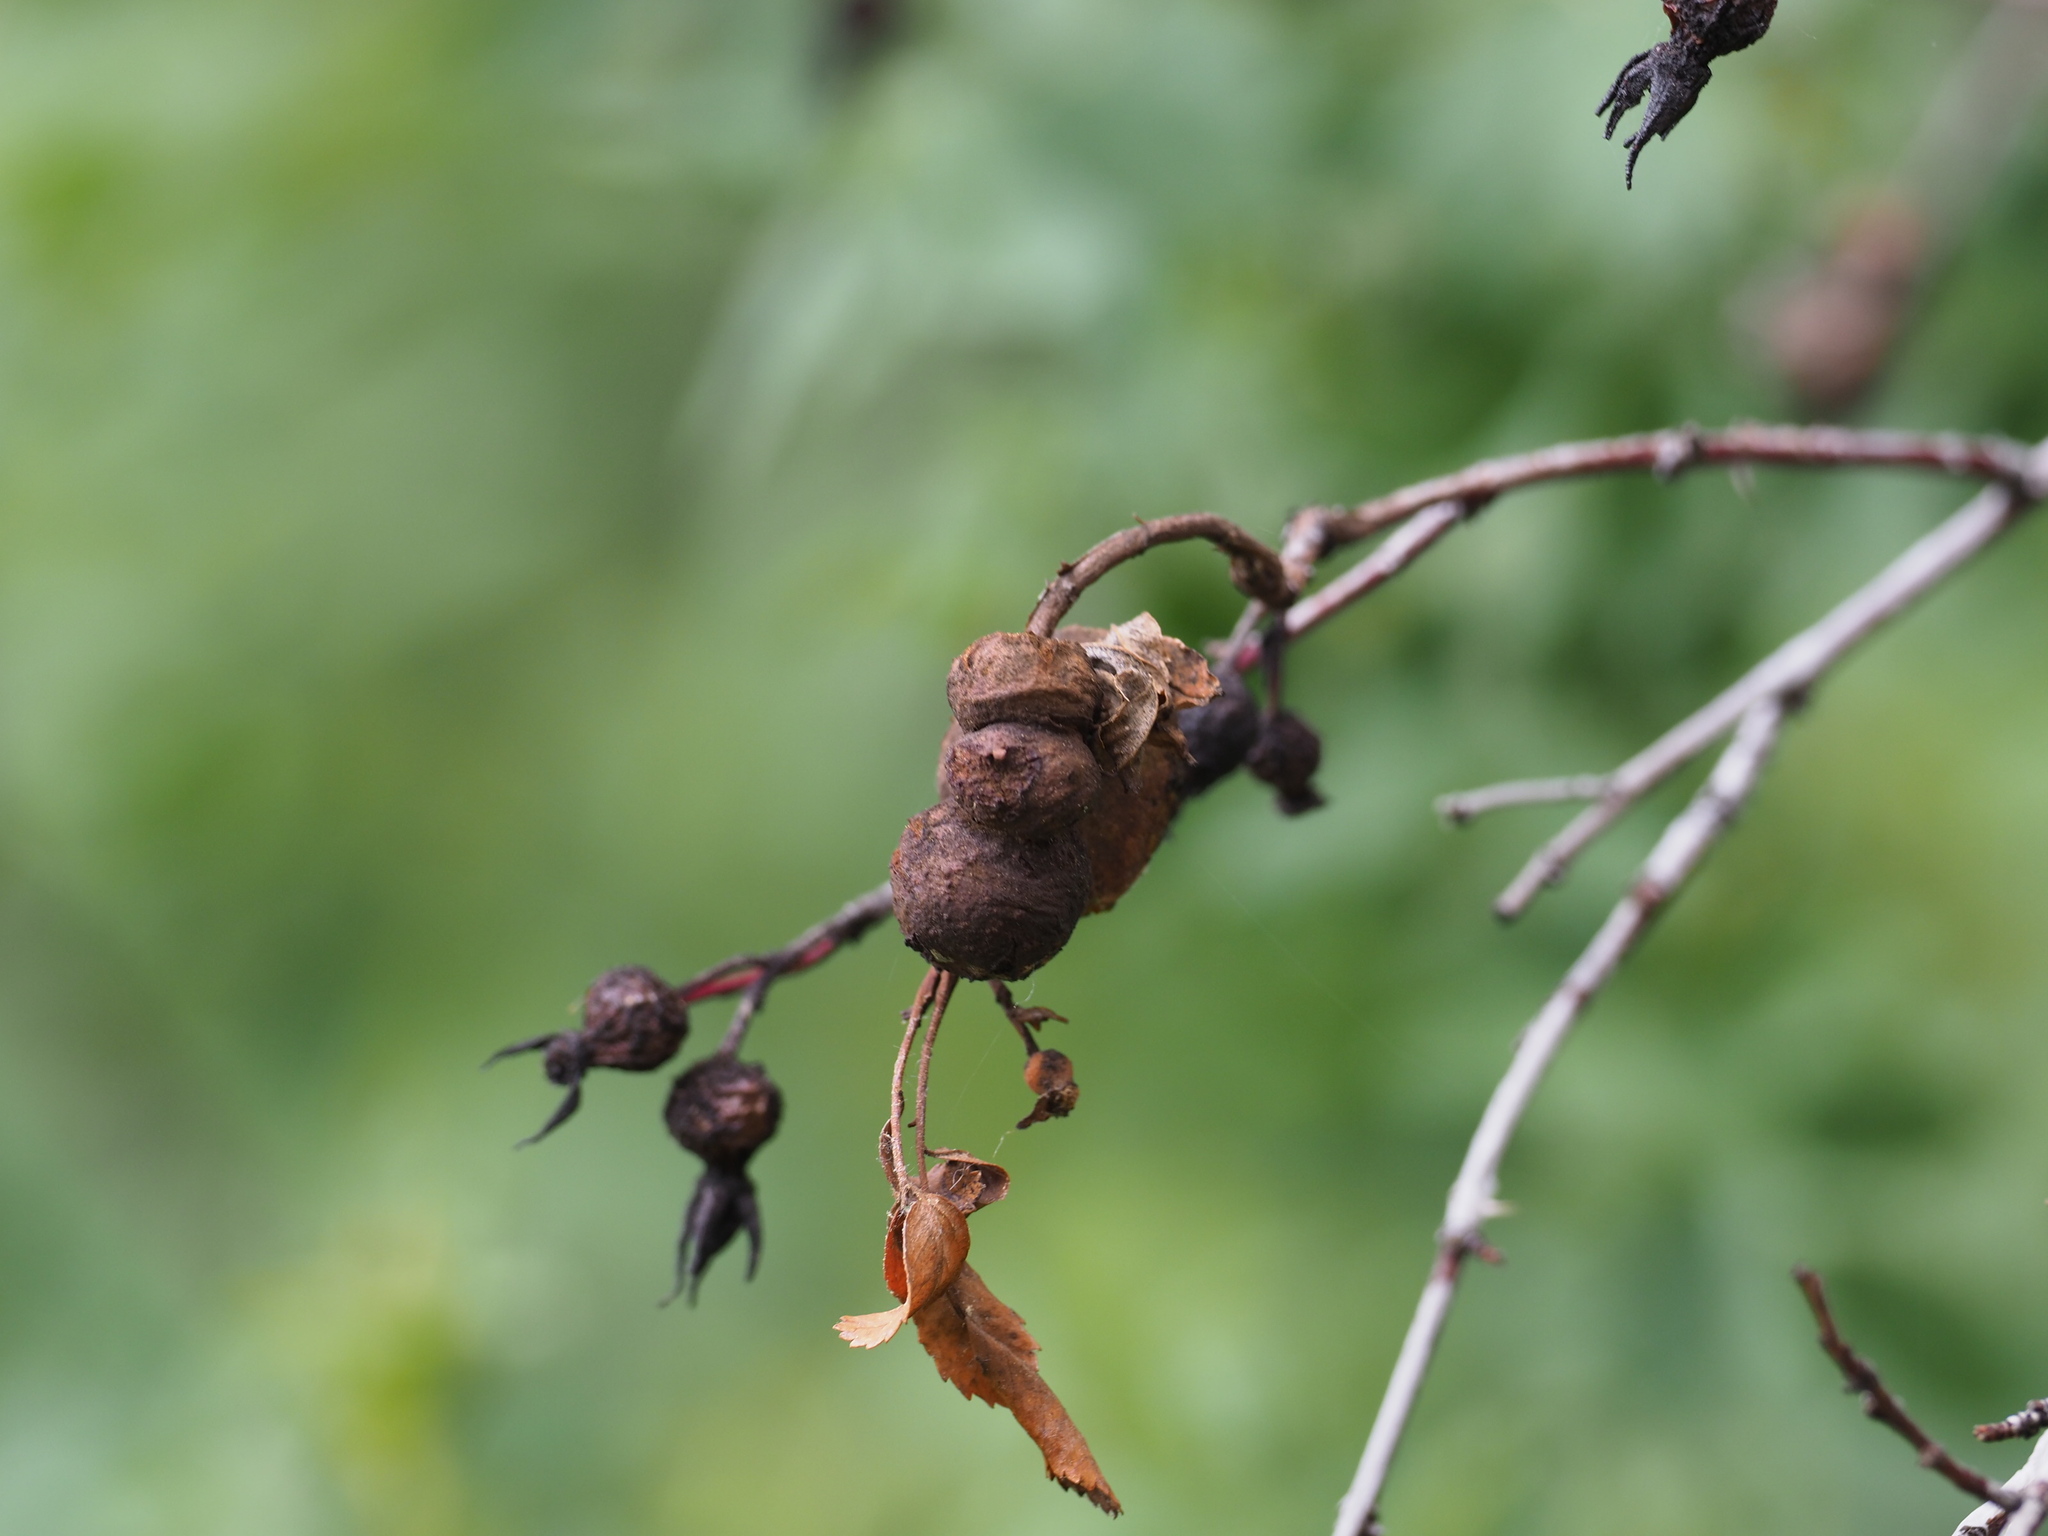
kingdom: Animalia
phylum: Arthropoda
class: Insecta
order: Hymenoptera
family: Cynipidae
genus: Diplolepis
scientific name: Diplolepis variabilis
